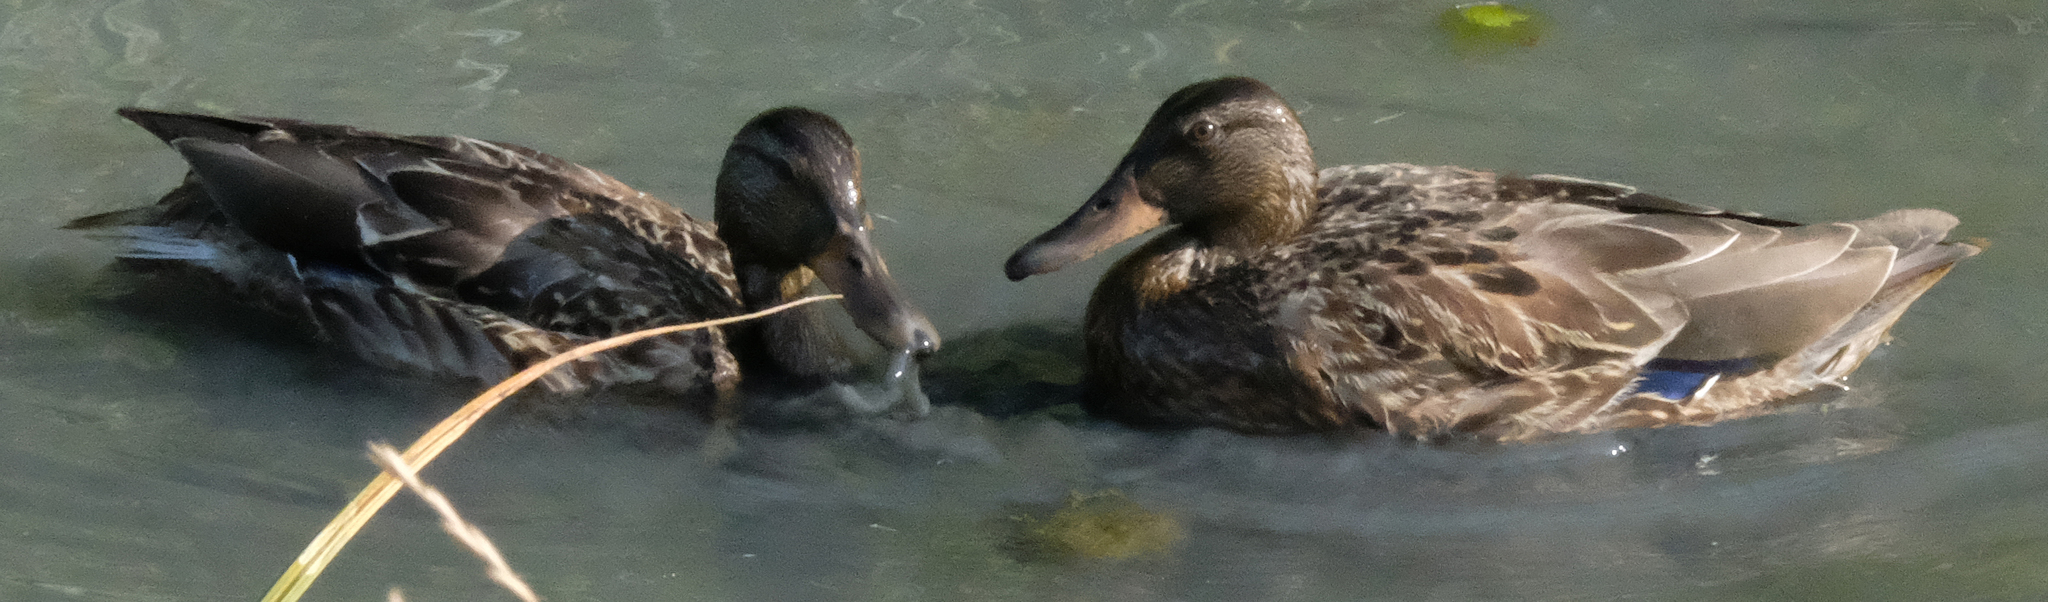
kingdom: Animalia
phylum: Chordata
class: Aves
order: Anseriformes
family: Anatidae
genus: Anas
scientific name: Anas platyrhynchos
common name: Mallard
